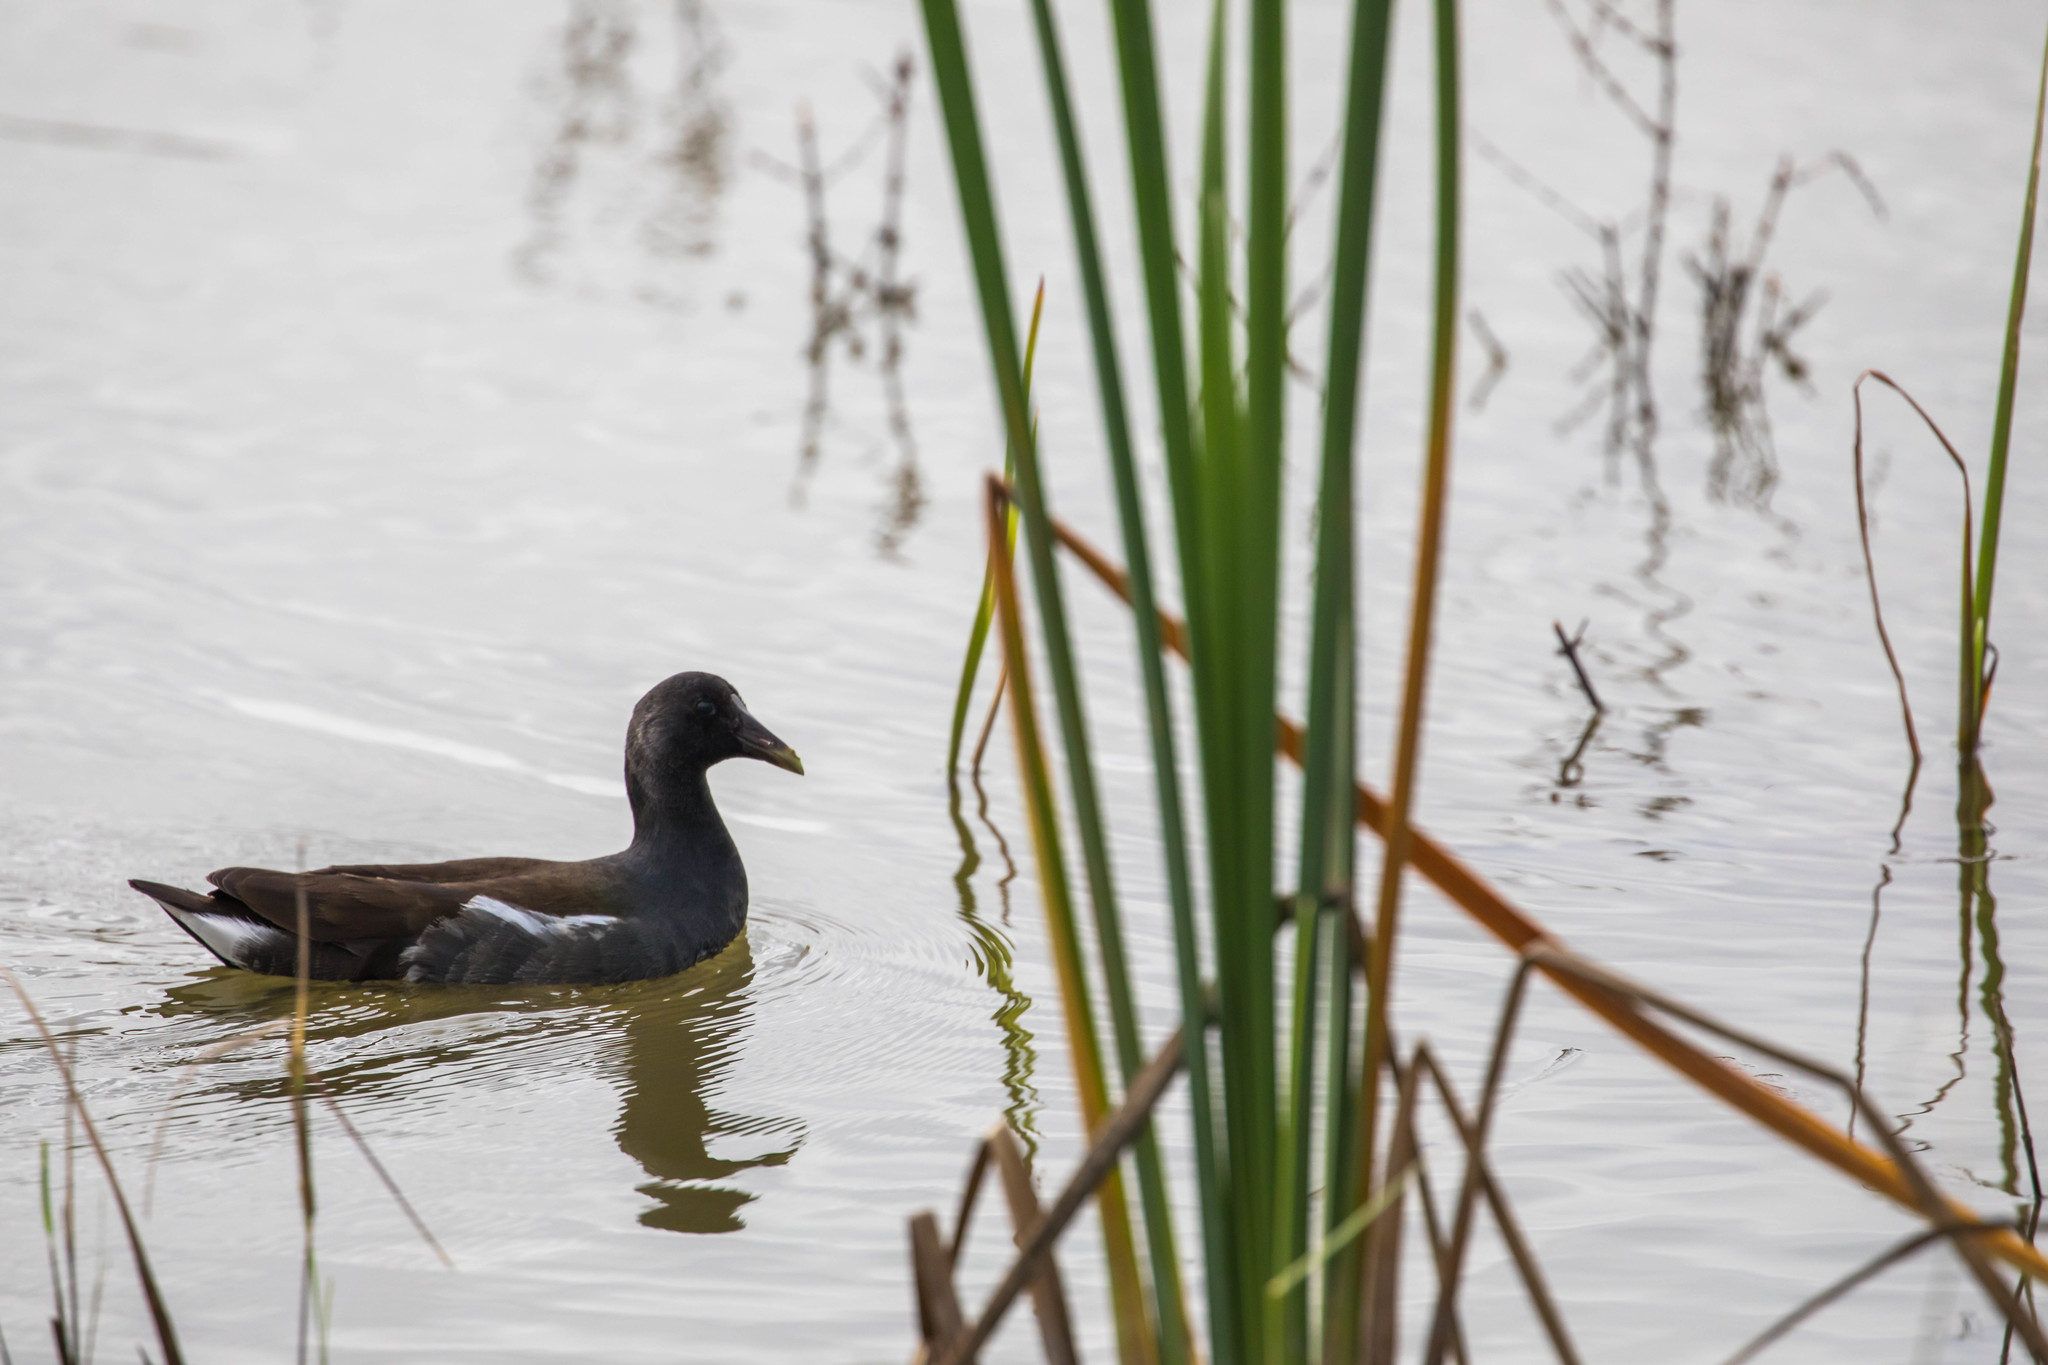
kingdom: Animalia
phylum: Chordata
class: Aves
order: Gruiformes
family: Rallidae
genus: Gallinula
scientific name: Gallinula chloropus
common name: Common moorhen
